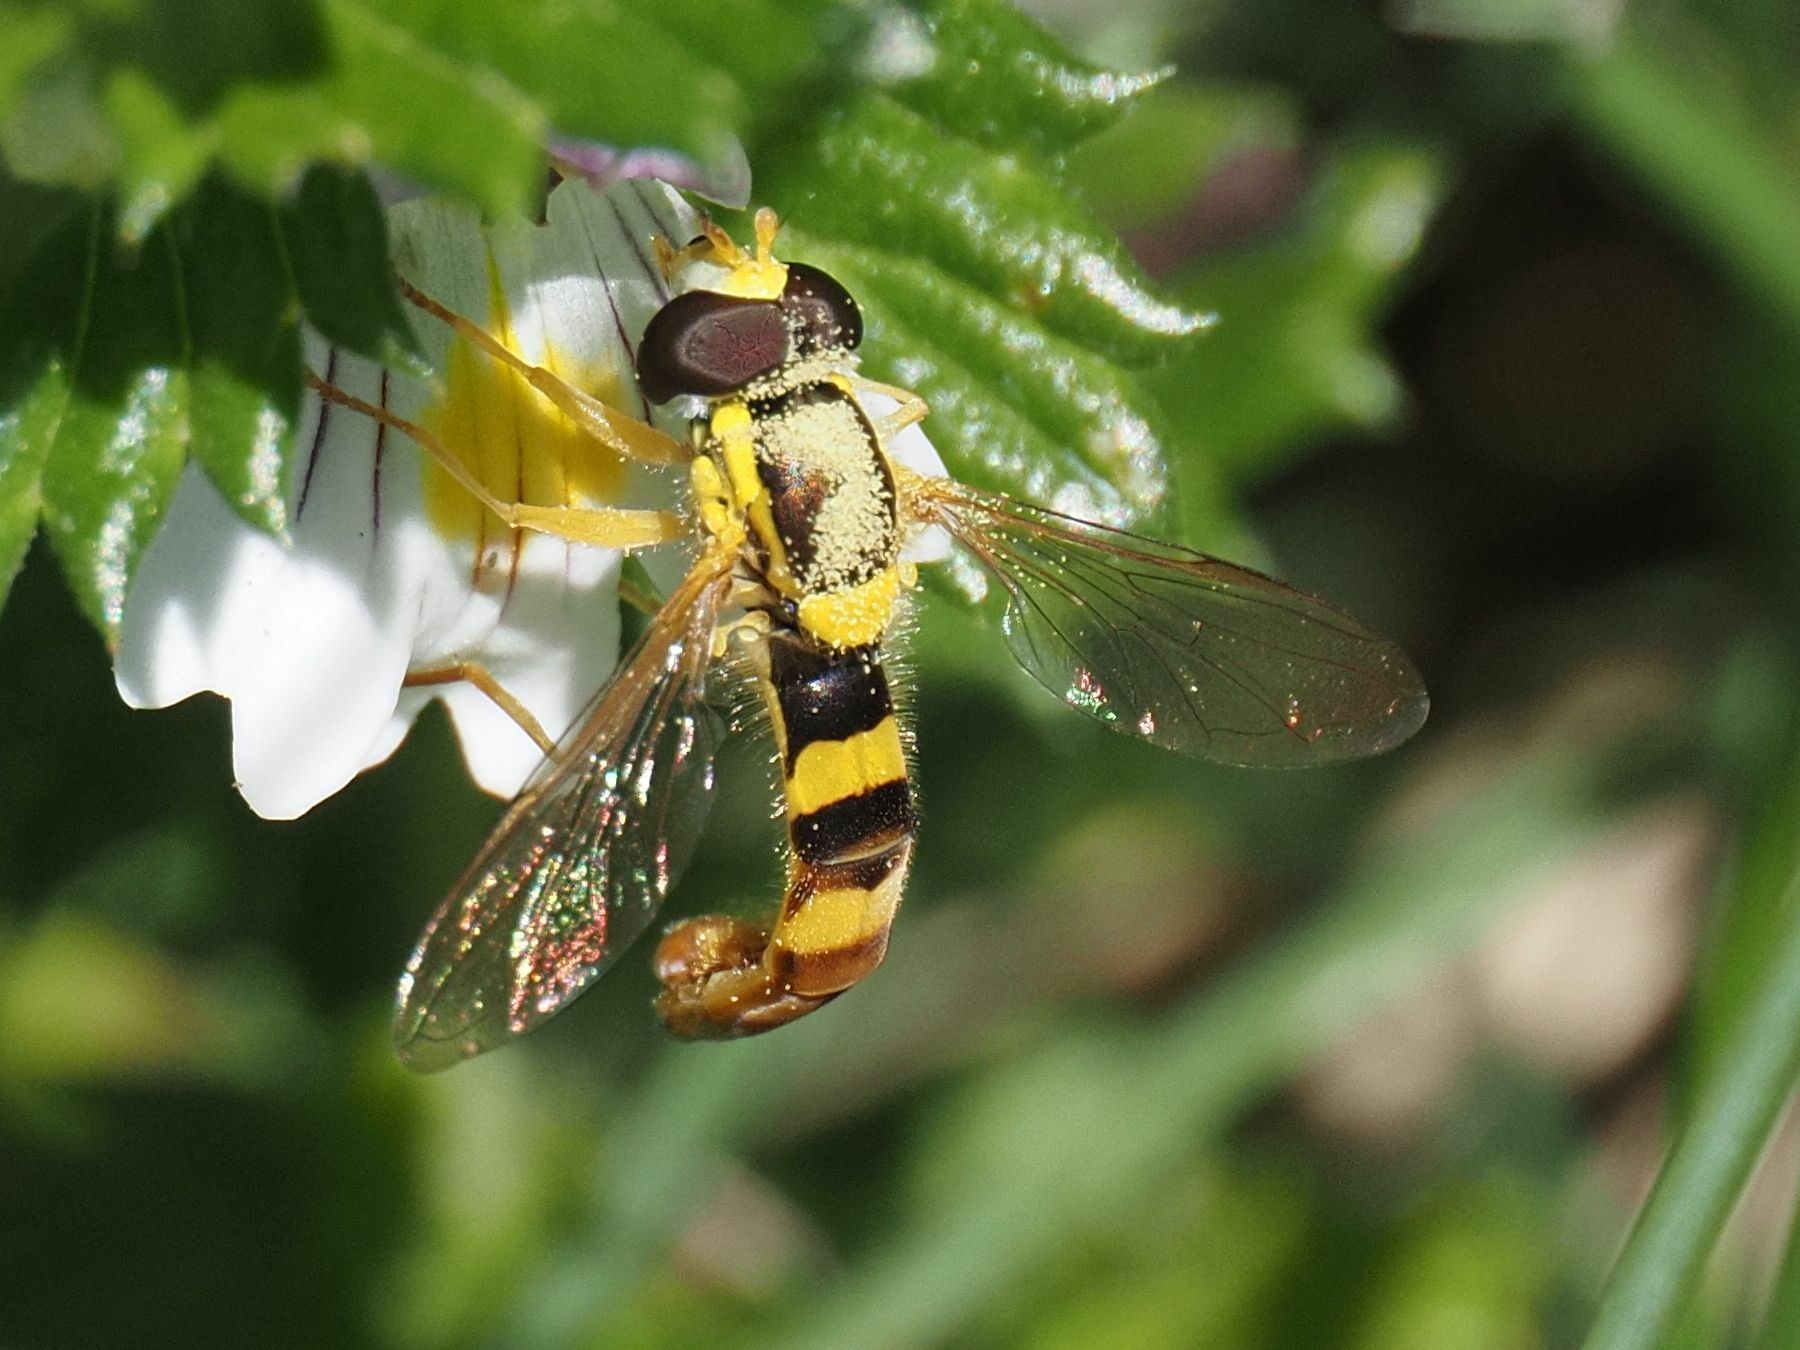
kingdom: Animalia
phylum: Arthropoda
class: Insecta
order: Diptera
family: Syrphidae
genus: Sphaerophoria
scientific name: Sphaerophoria scripta
